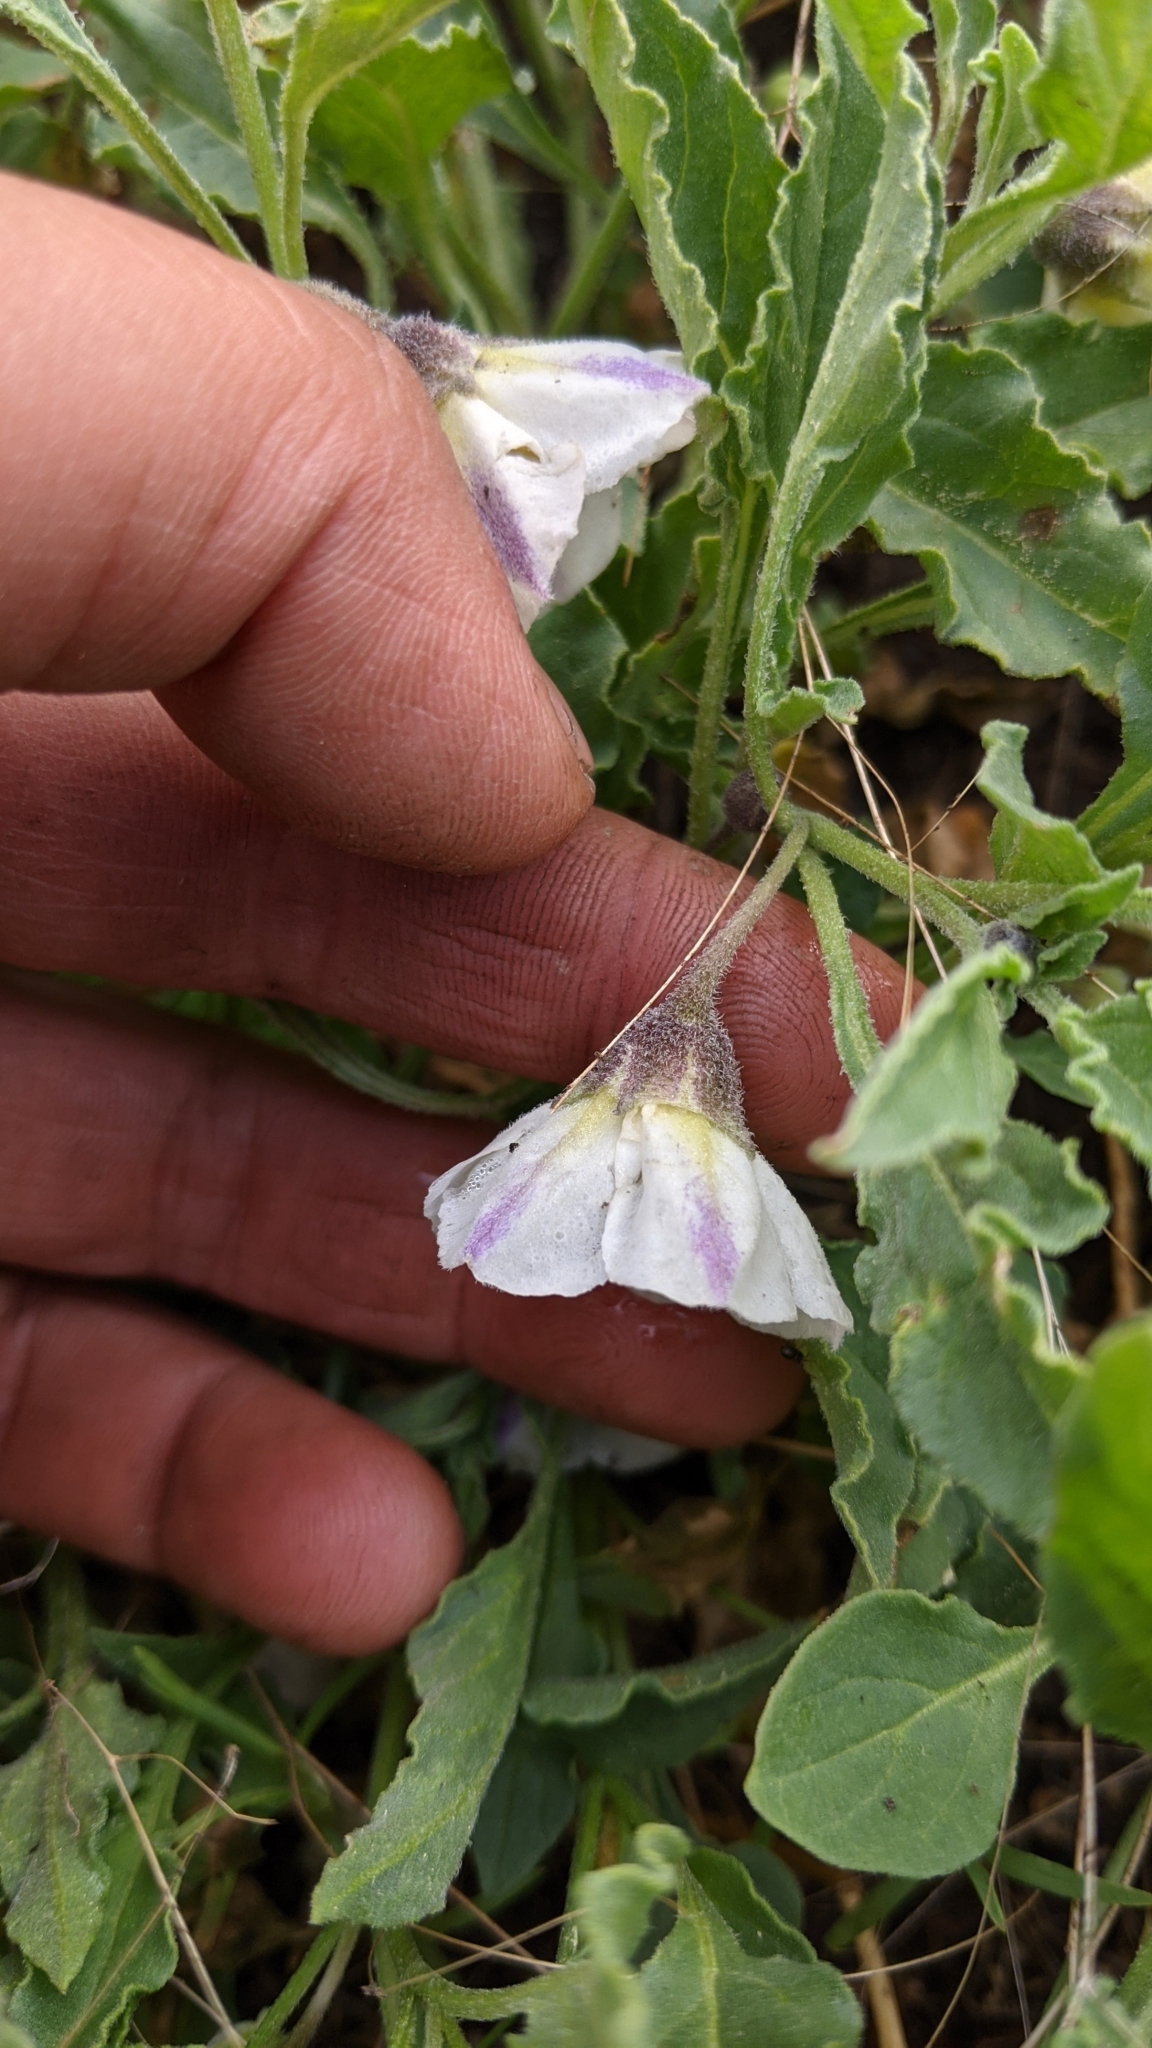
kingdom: Plantae
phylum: Tracheophyta
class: Magnoliopsida
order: Solanales
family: Solanaceae
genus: Leucophysalis
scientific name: Leucophysalis nana
